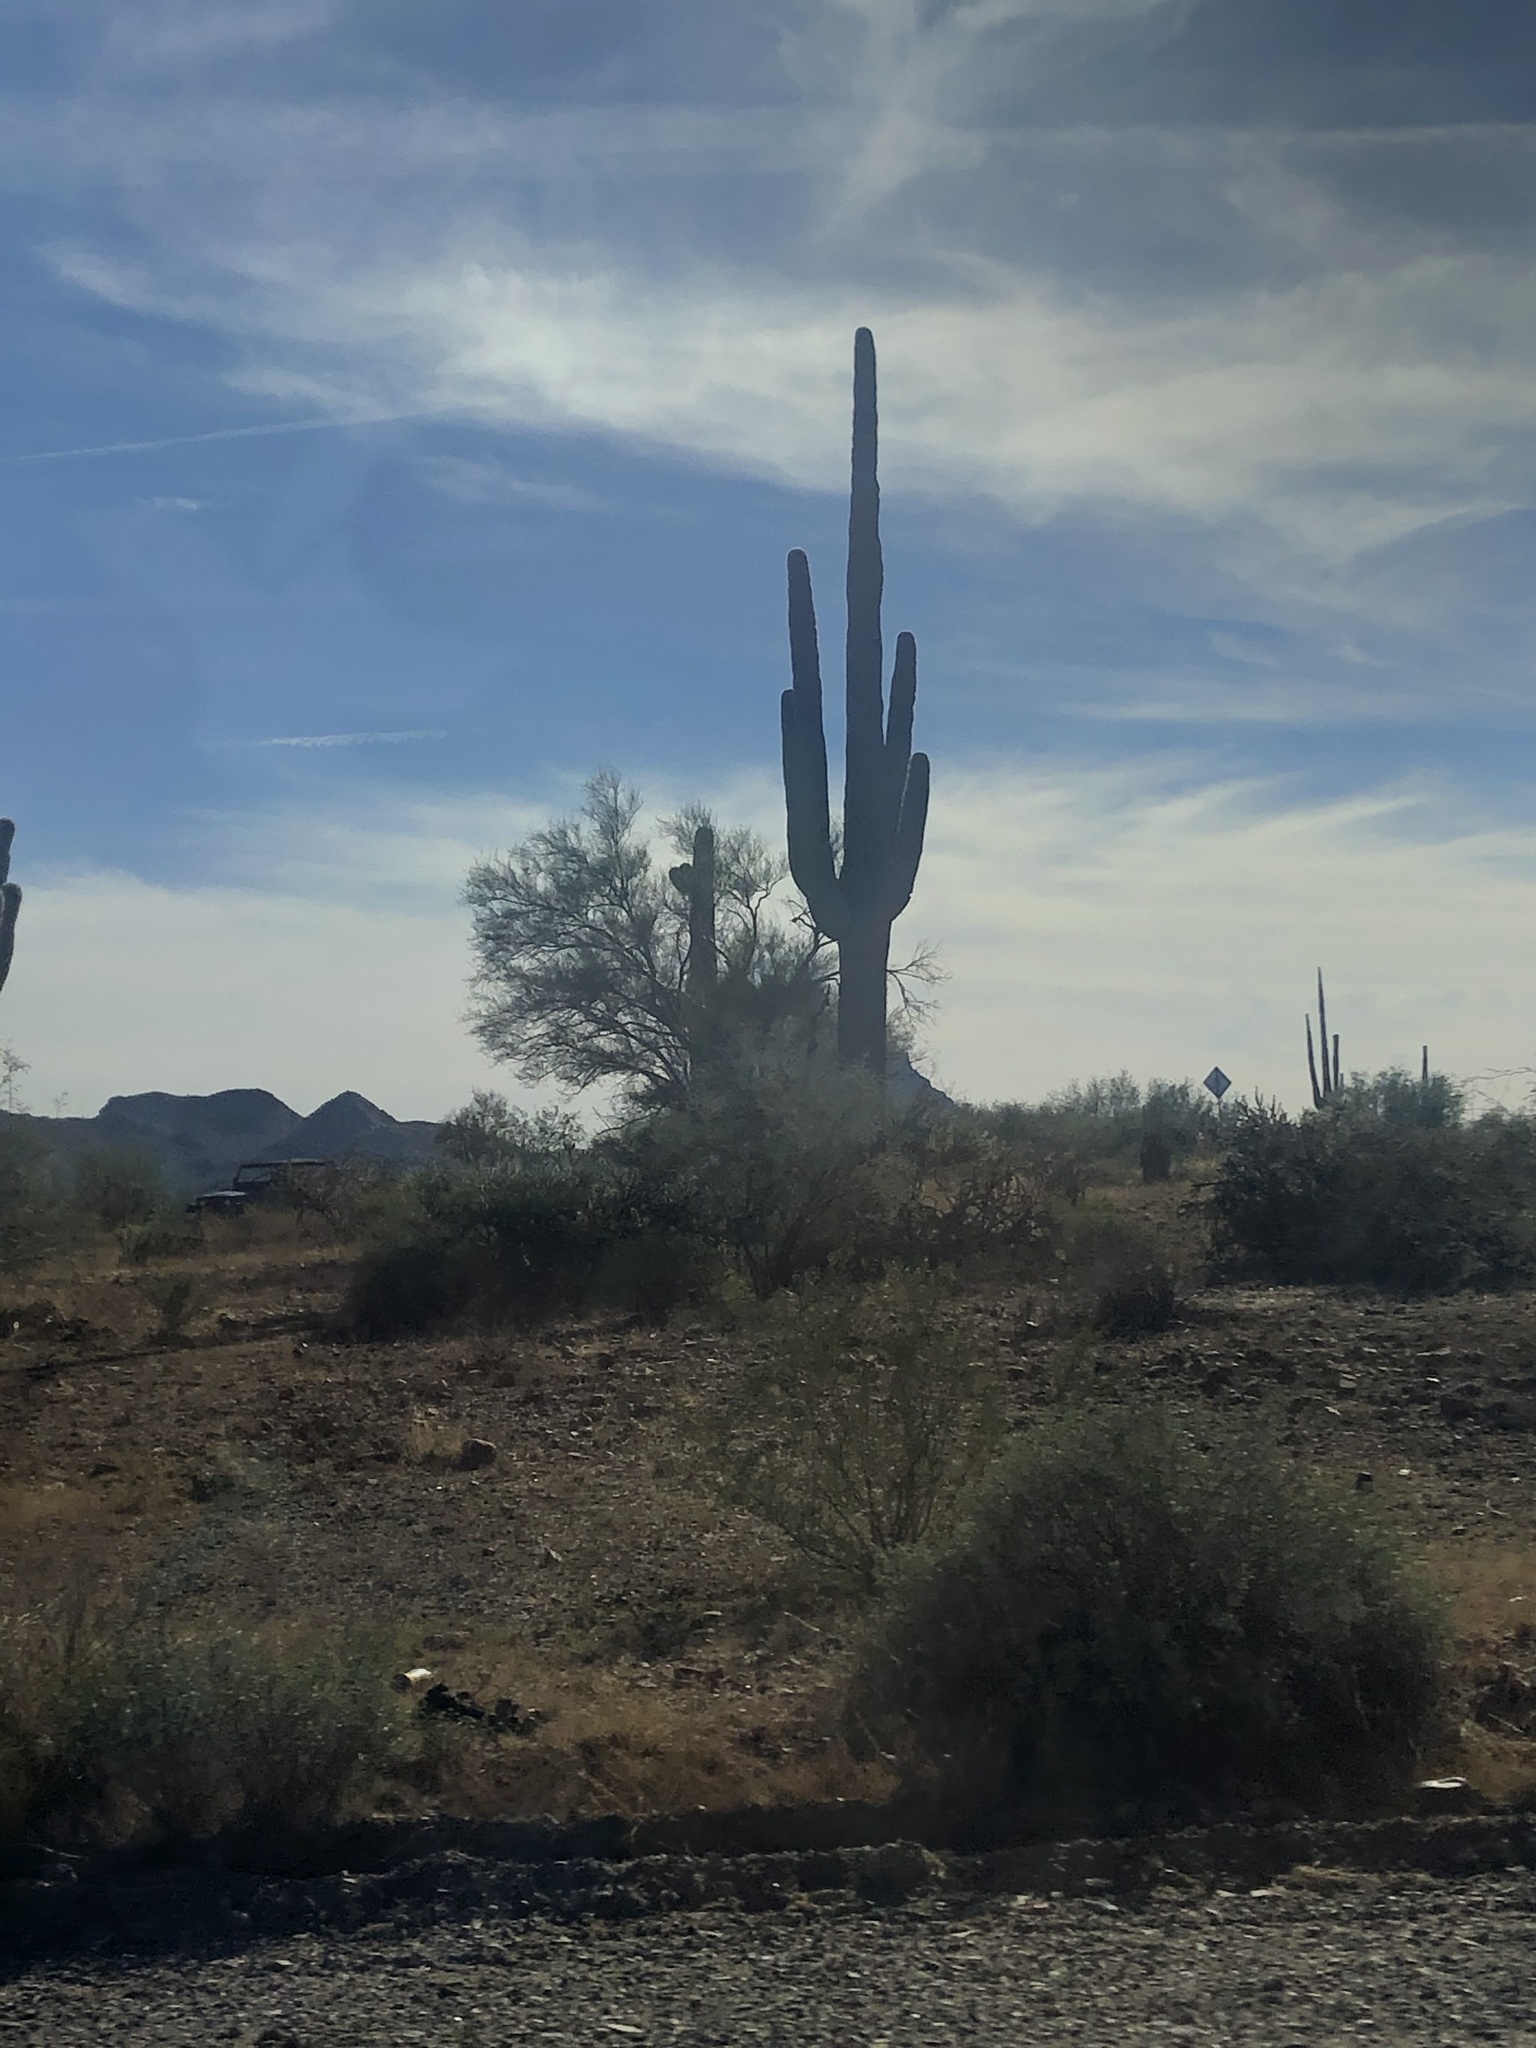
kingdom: Plantae
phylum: Tracheophyta
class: Magnoliopsida
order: Caryophyllales
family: Cactaceae
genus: Carnegiea
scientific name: Carnegiea gigantea
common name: Saguaro
